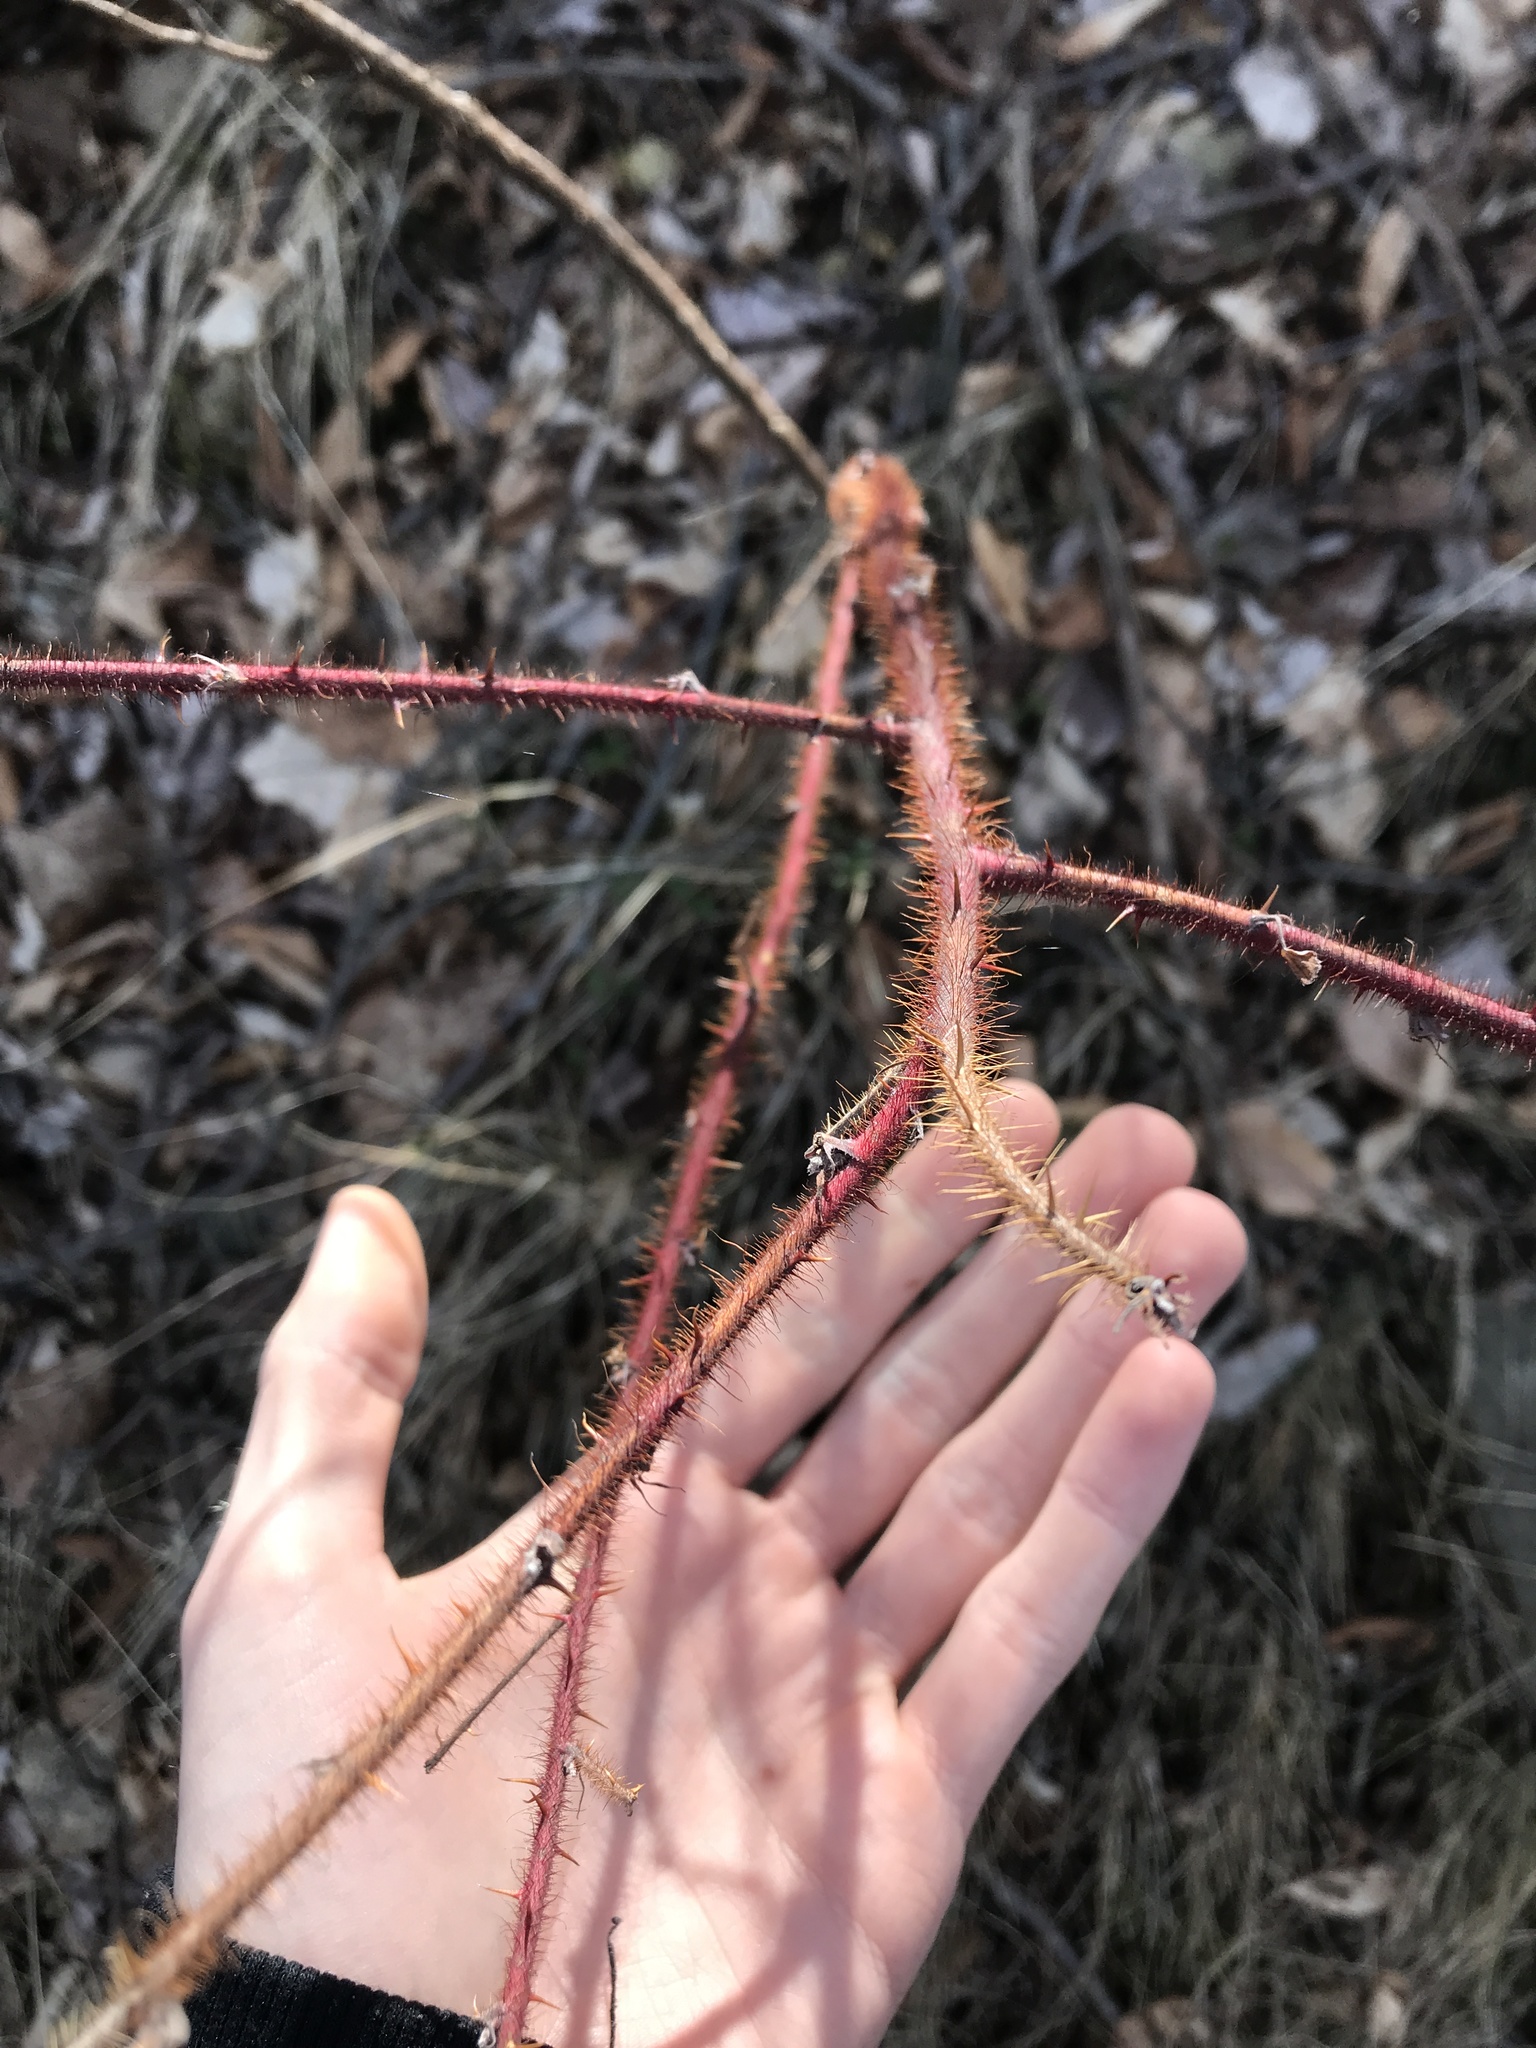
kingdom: Plantae
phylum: Tracheophyta
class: Magnoliopsida
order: Rosales
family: Rosaceae
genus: Rubus
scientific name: Rubus phoenicolasius
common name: Japanese wineberry
